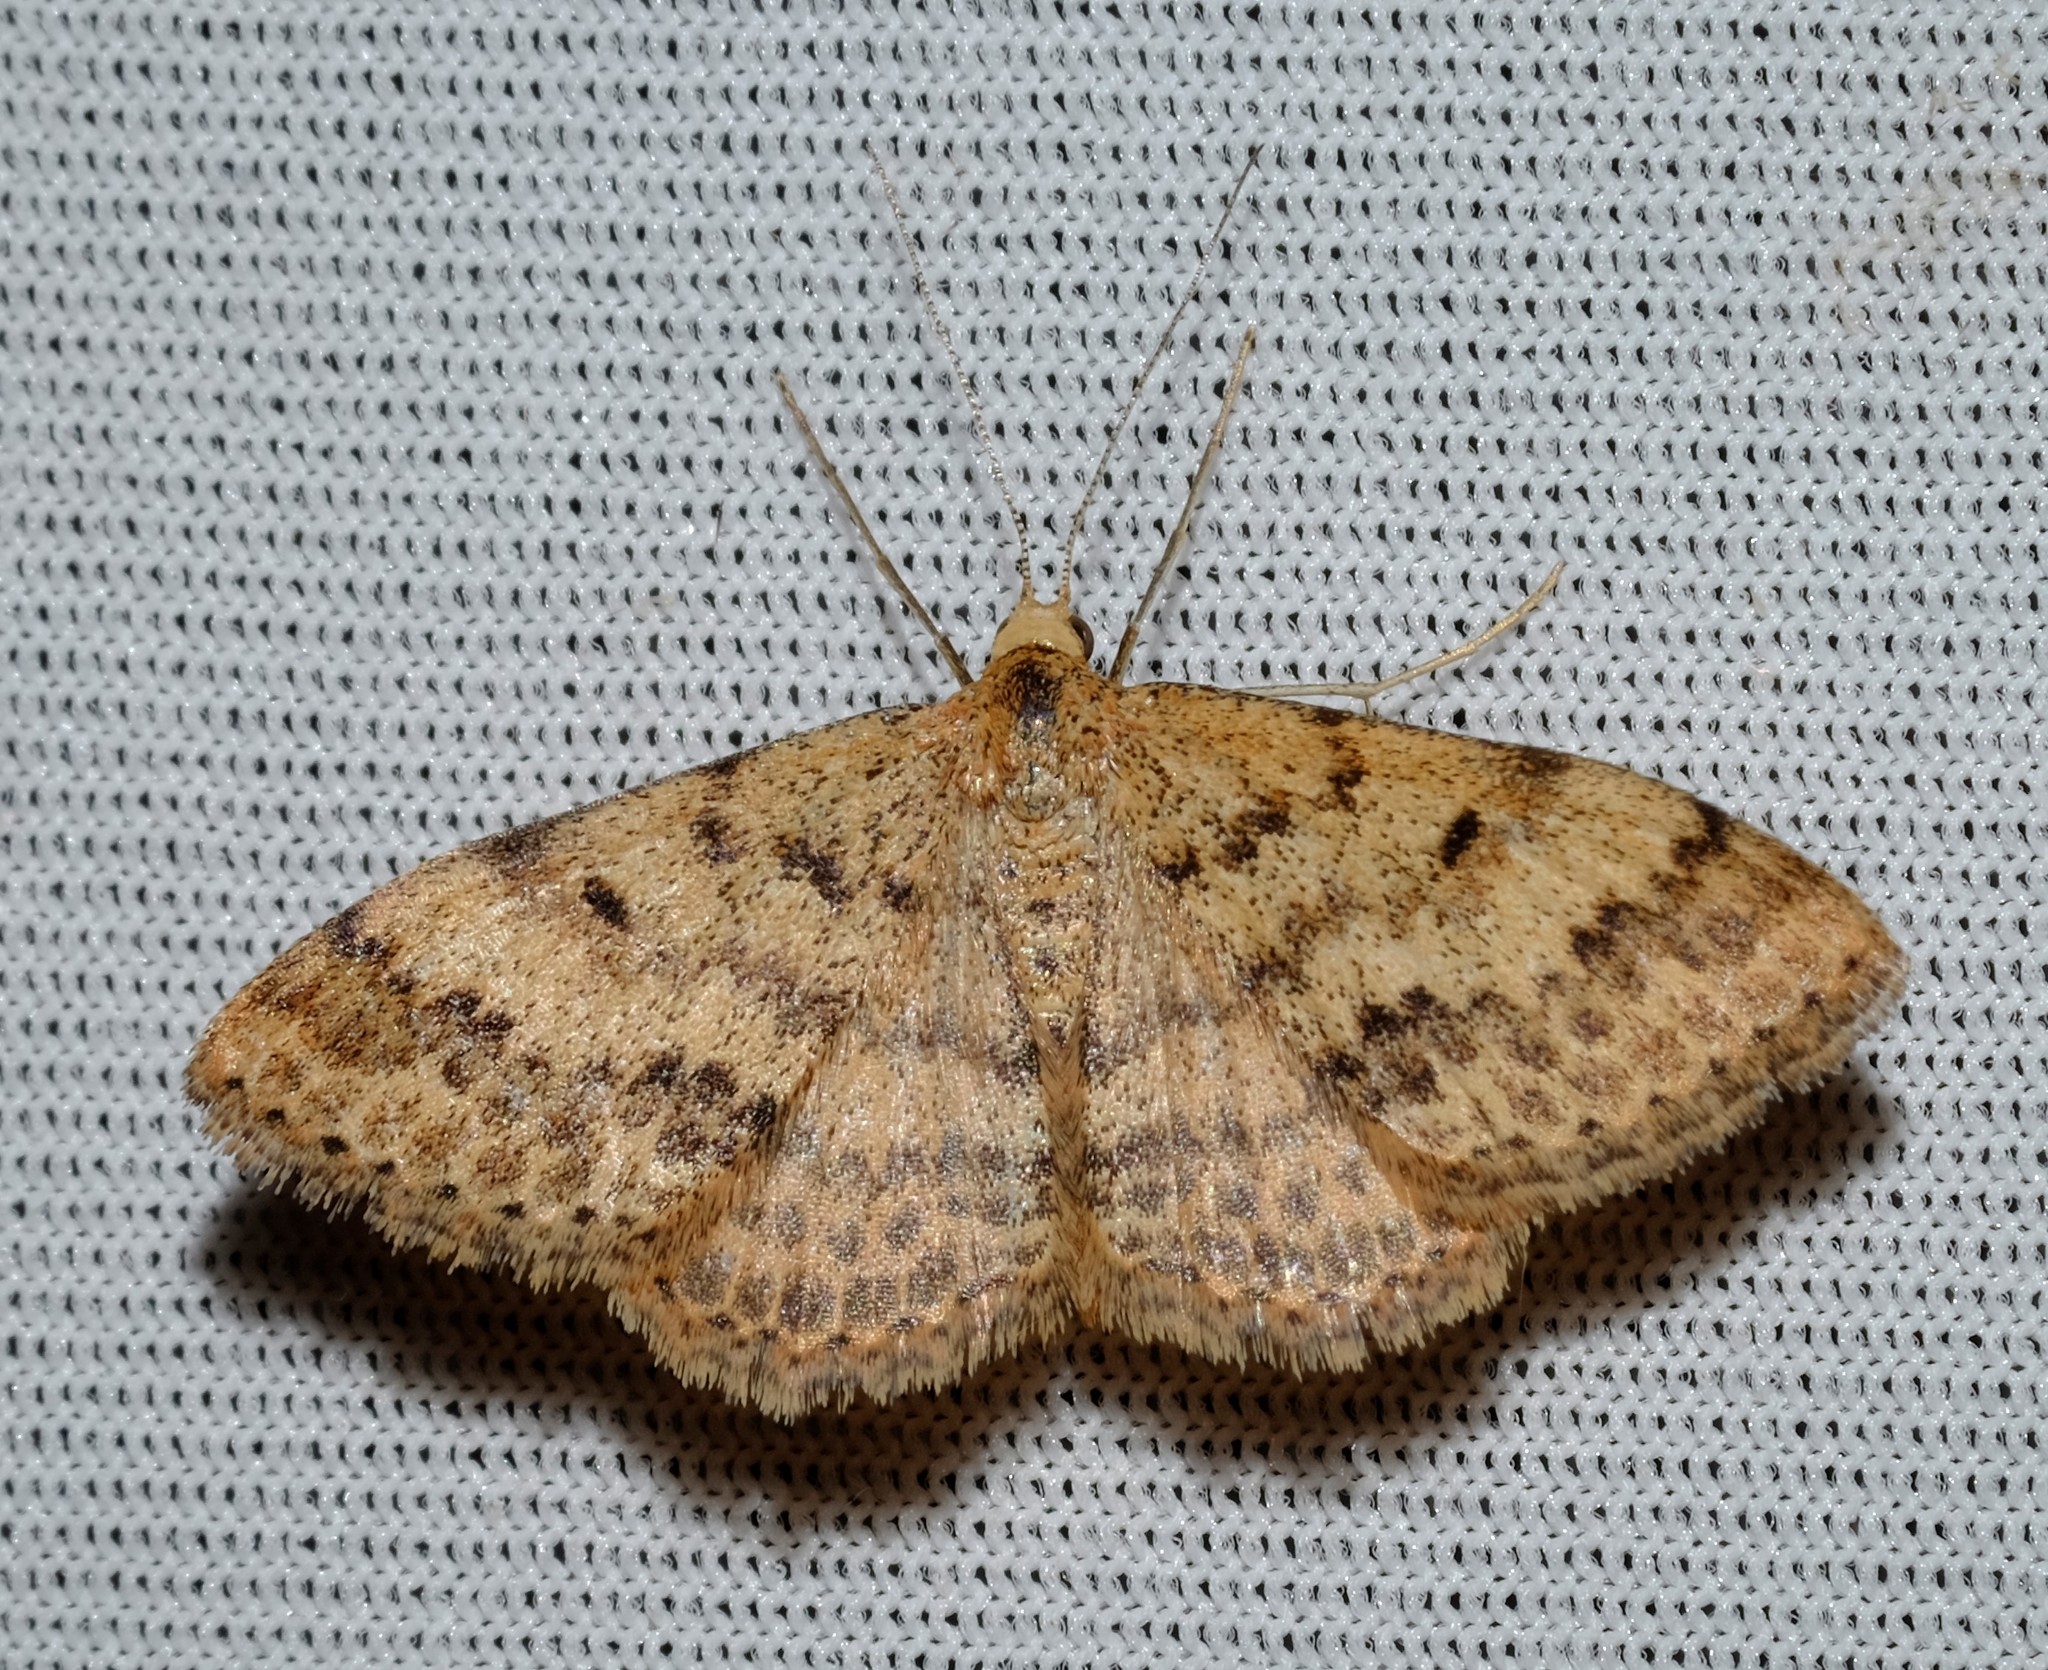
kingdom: Animalia
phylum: Arthropoda
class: Insecta
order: Lepidoptera
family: Geometridae
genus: Scopula
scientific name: Scopula rubraria
